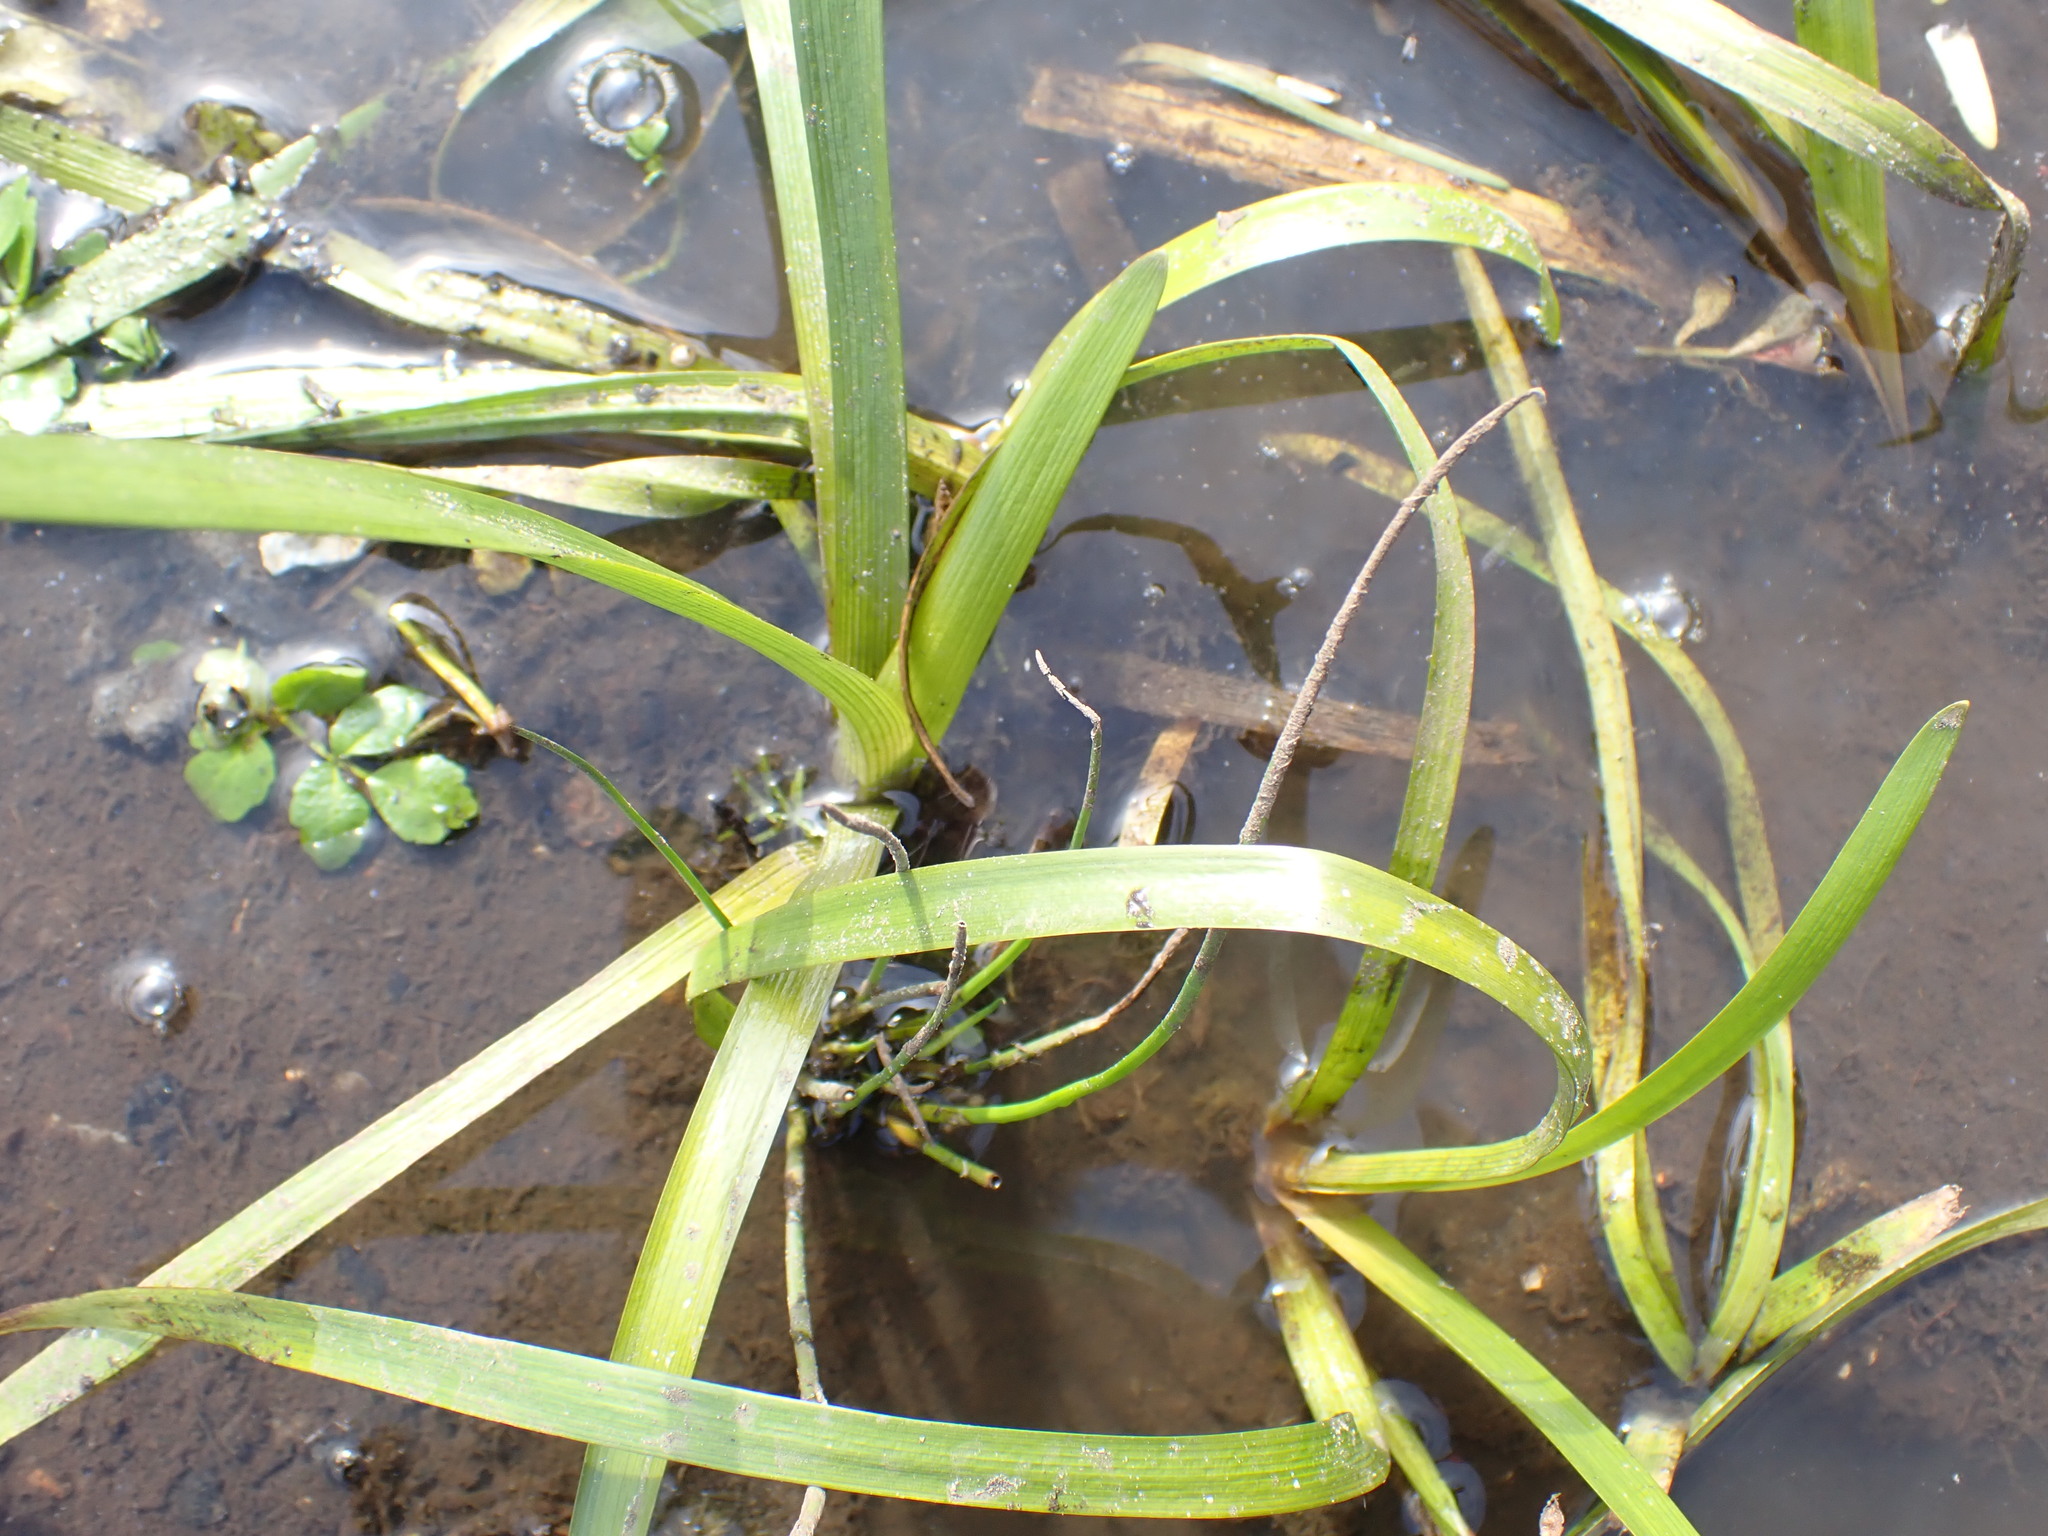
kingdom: Plantae
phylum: Tracheophyta
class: Liliopsida
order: Poales
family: Typhaceae
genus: Sparganium
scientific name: Sparganium emersum
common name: Unbranched bur-reed
